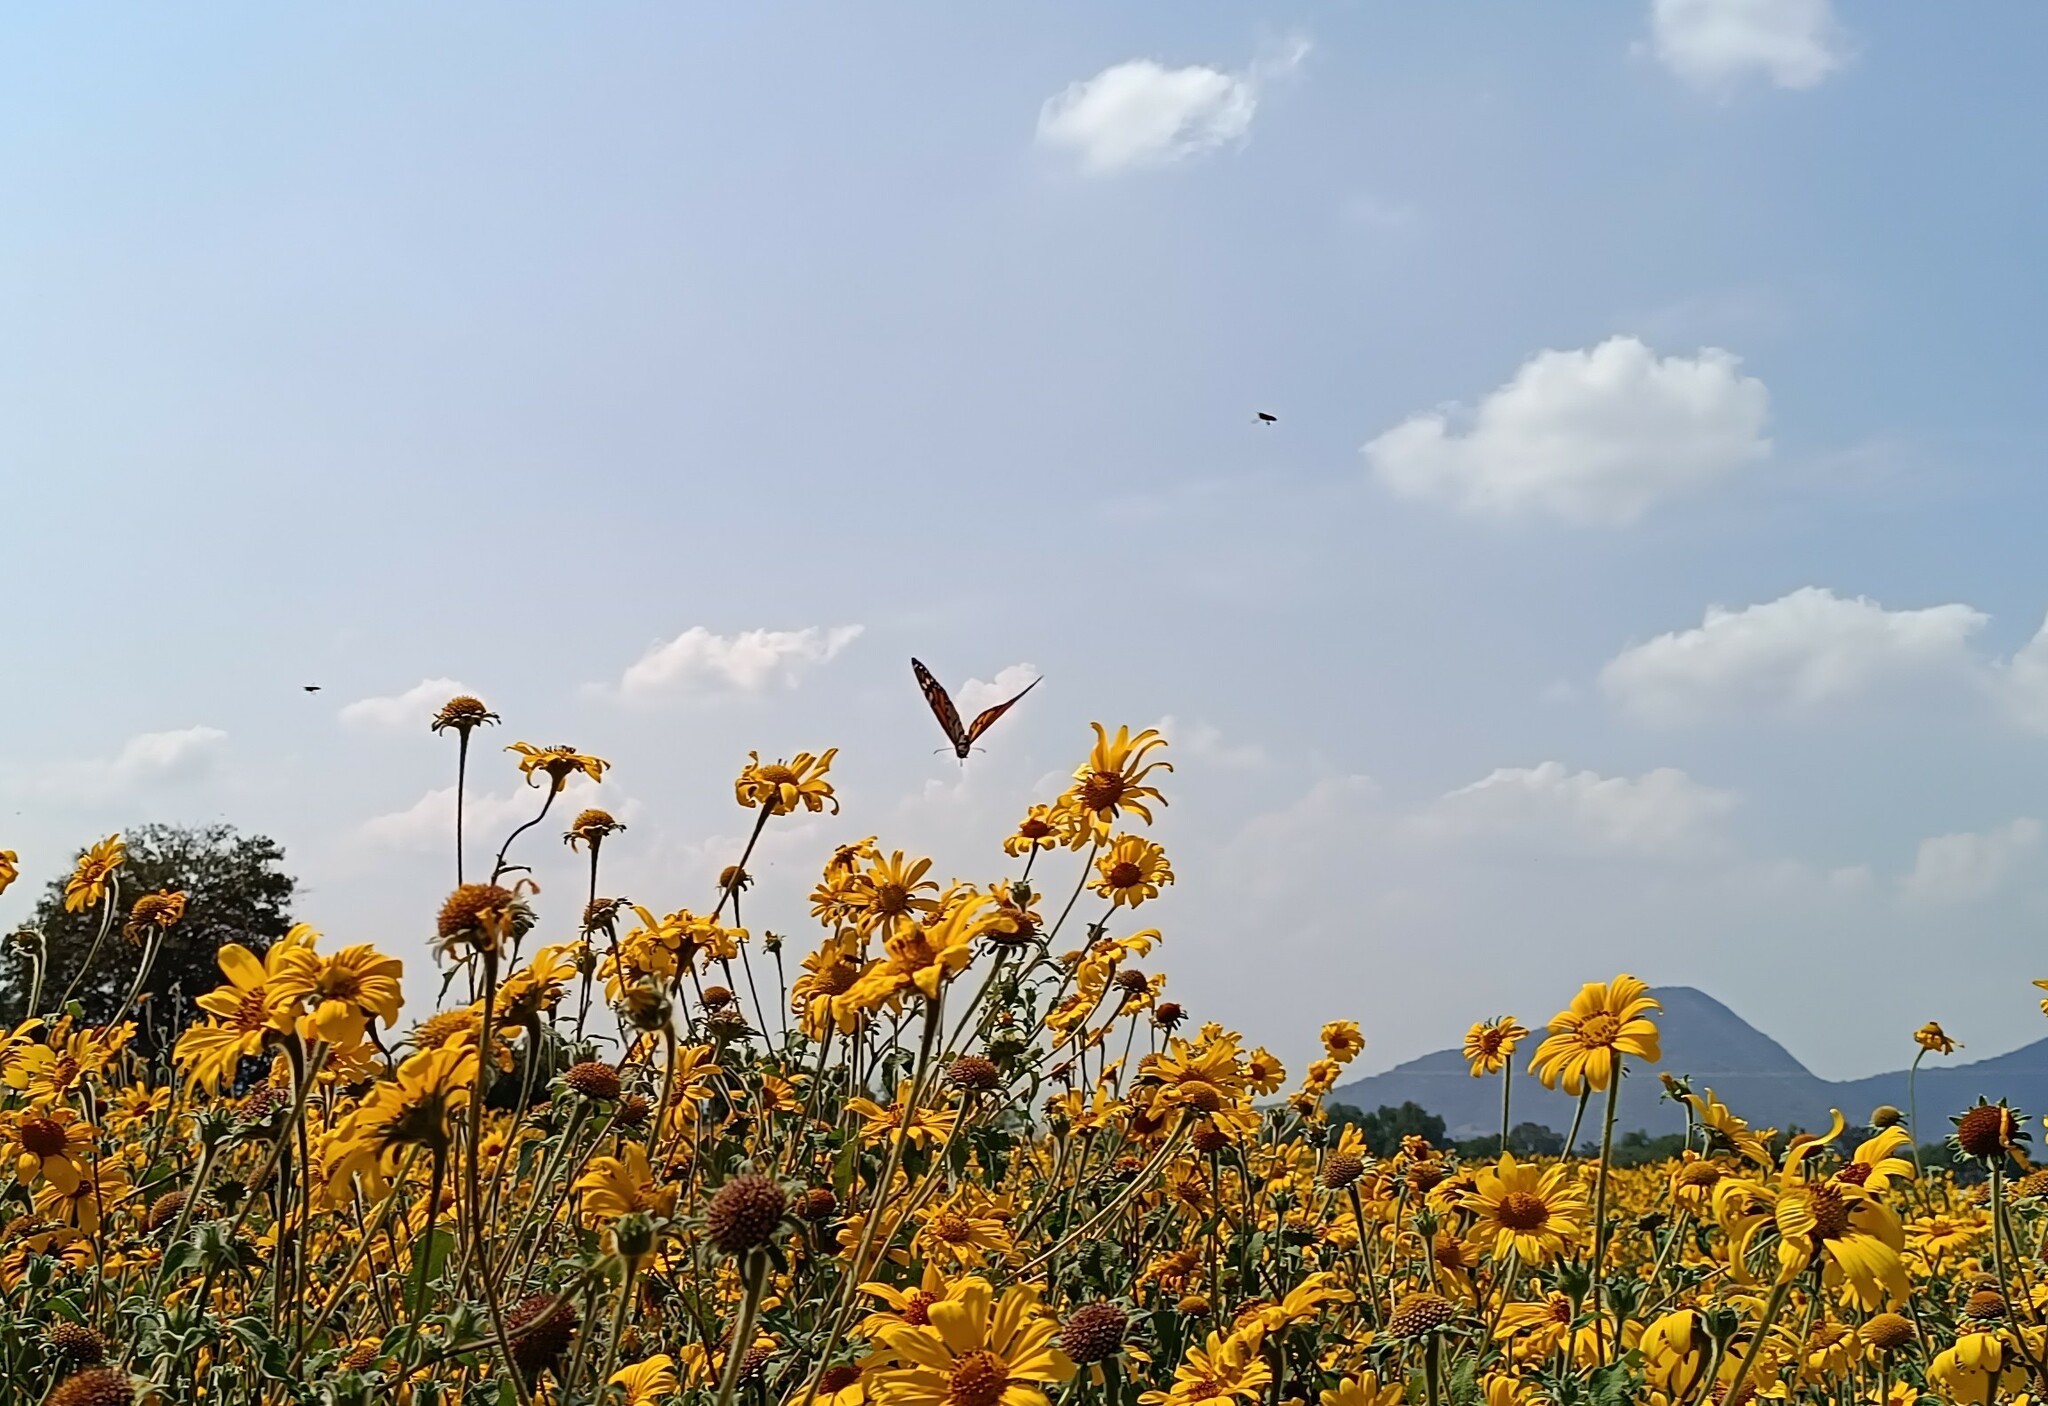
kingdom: Plantae
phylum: Tracheophyta
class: Magnoliopsida
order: Asterales
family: Asteraceae
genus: Tithonia
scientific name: Tithonia tubaeformis
